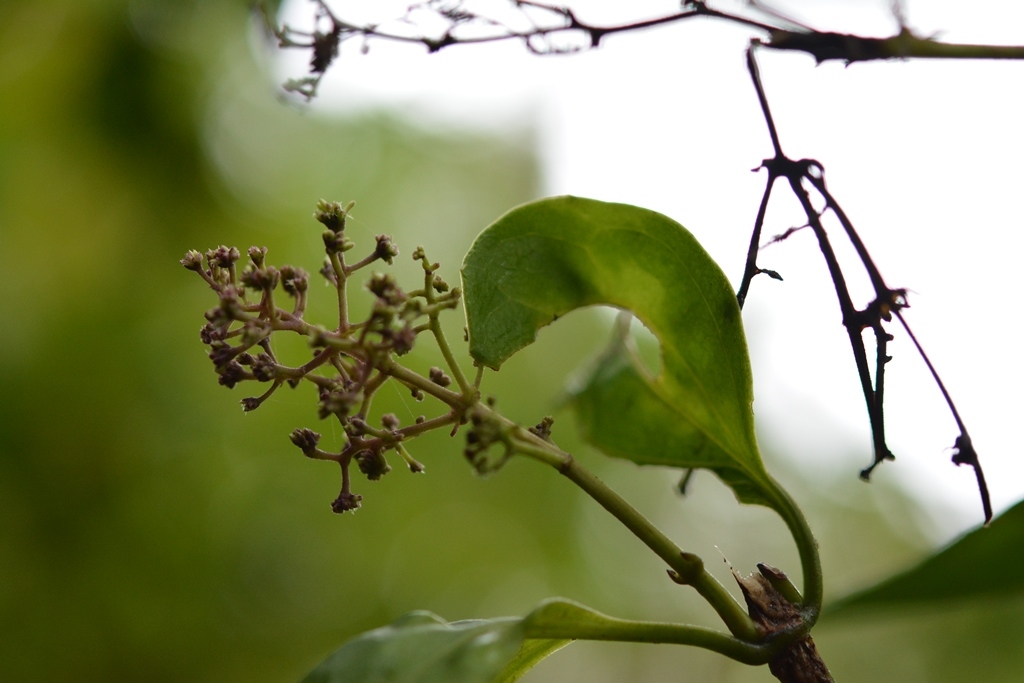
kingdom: Plantae
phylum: Tracheophyta
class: Magnoliopsida
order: Gentianales
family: Rubiaceae
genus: Manettia
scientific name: Manettia flexilis
